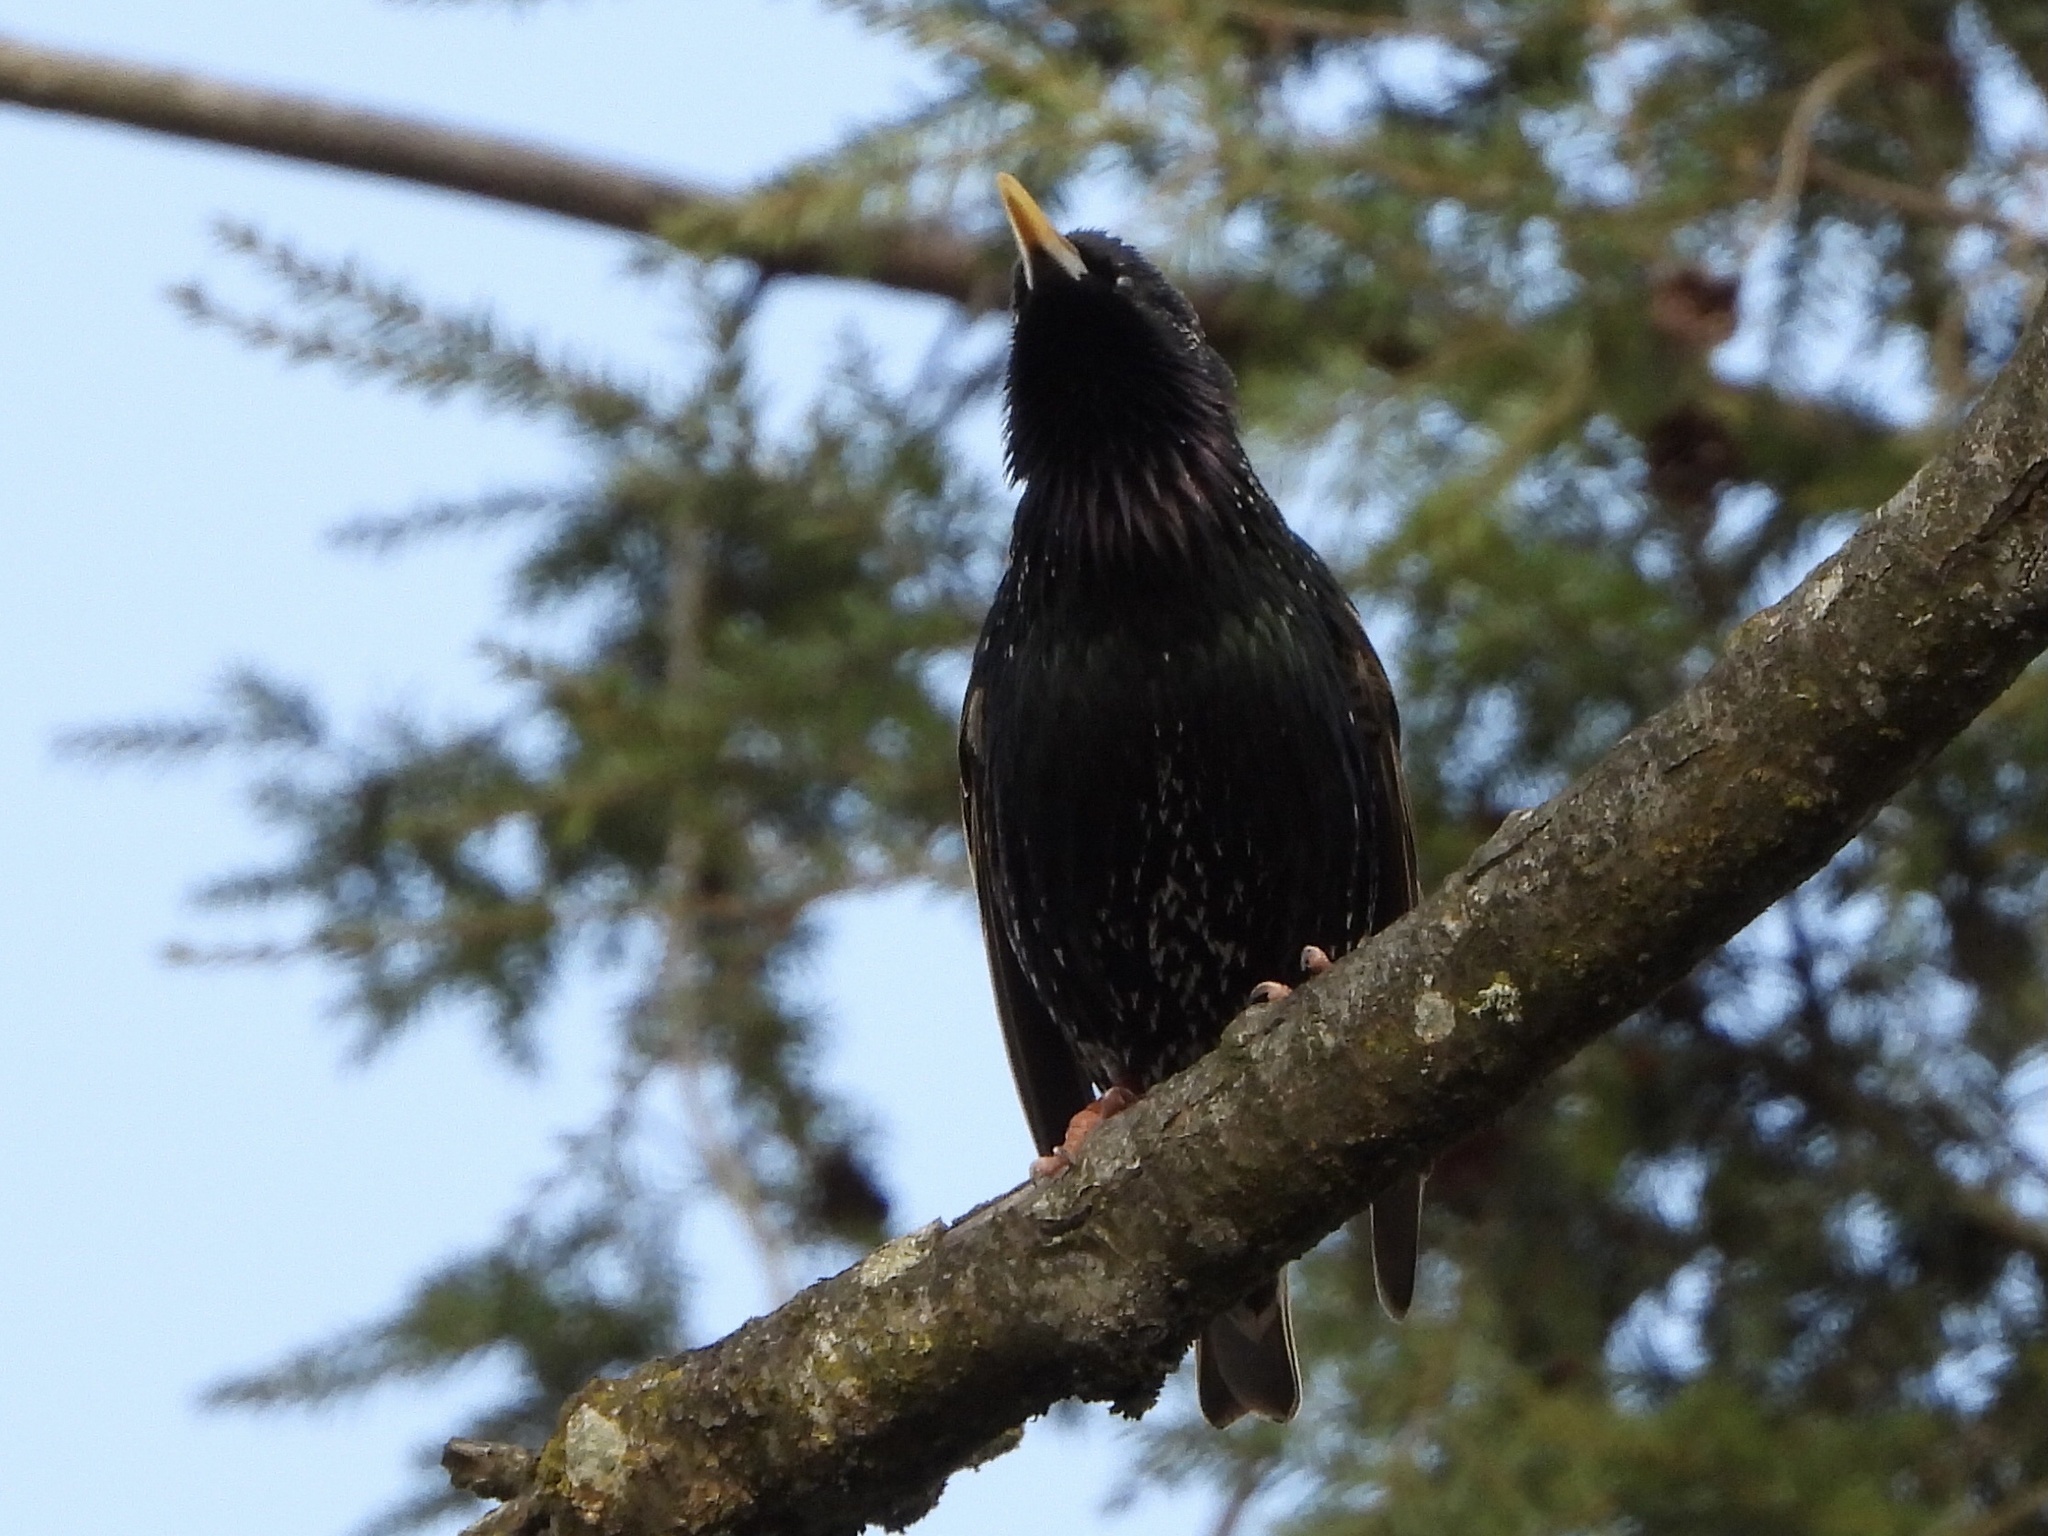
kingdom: Animalia
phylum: Chordata
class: Aves
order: Passeriformes
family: Sturnidae
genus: Sturnus
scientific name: Sturnus vulgaris
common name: Common starling
